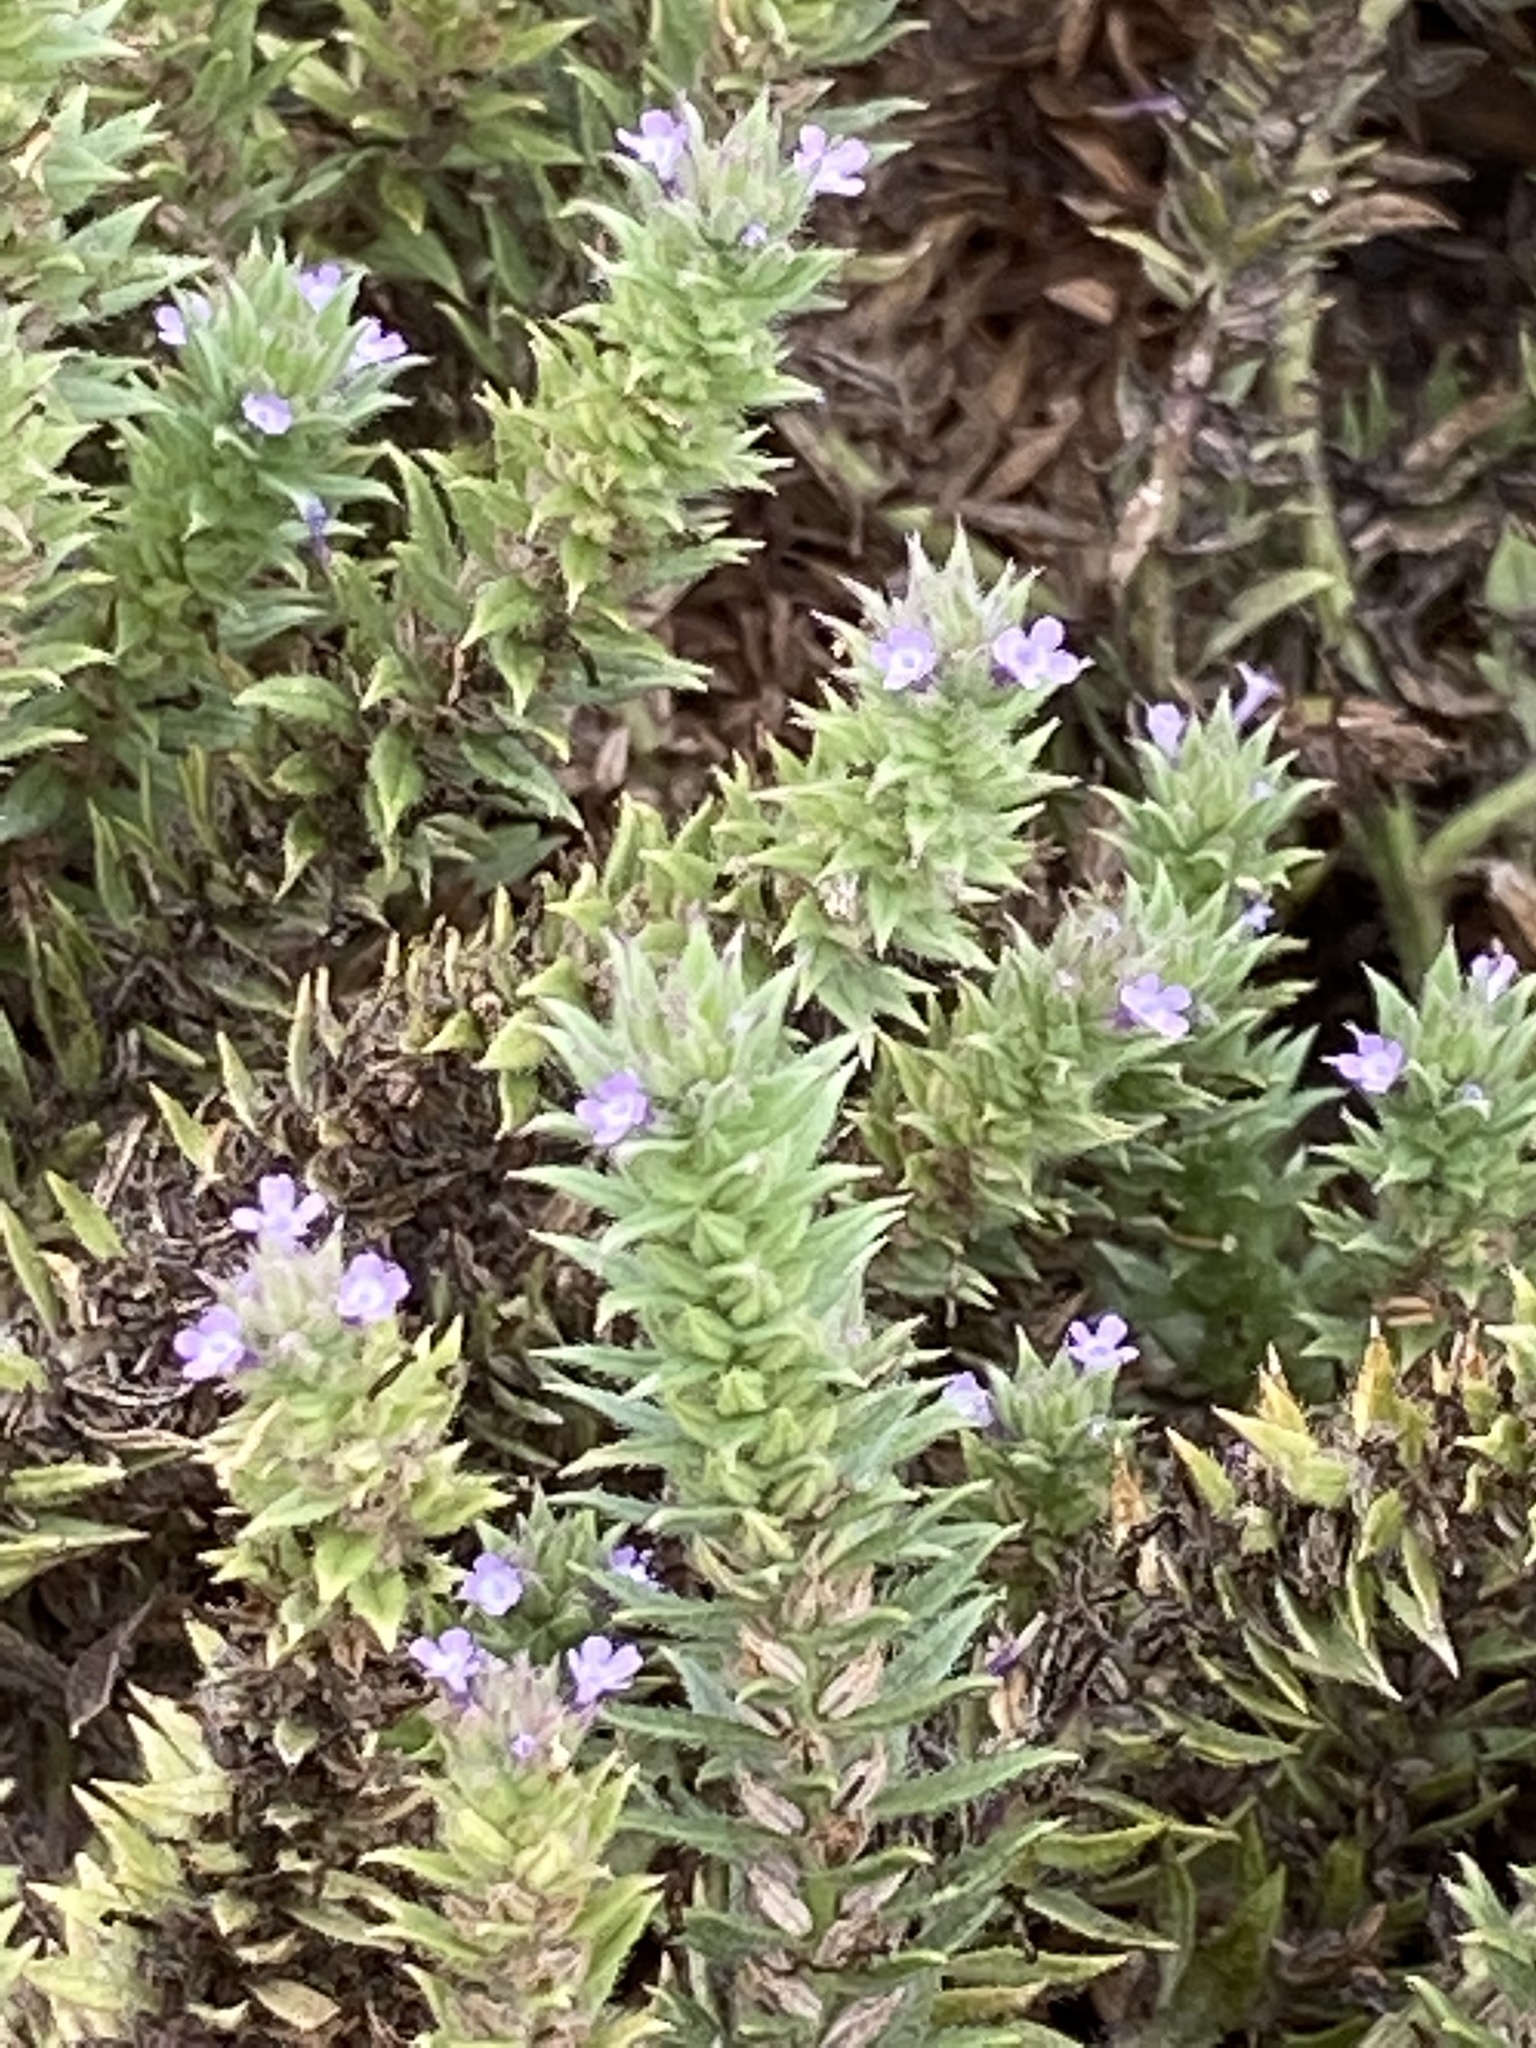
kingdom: Plantae
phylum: Tracheophyta
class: Magnoliopsida
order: Lamiales
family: Verbenaceae
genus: Verbena
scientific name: Verbena bracteata
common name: Bracted vervain
